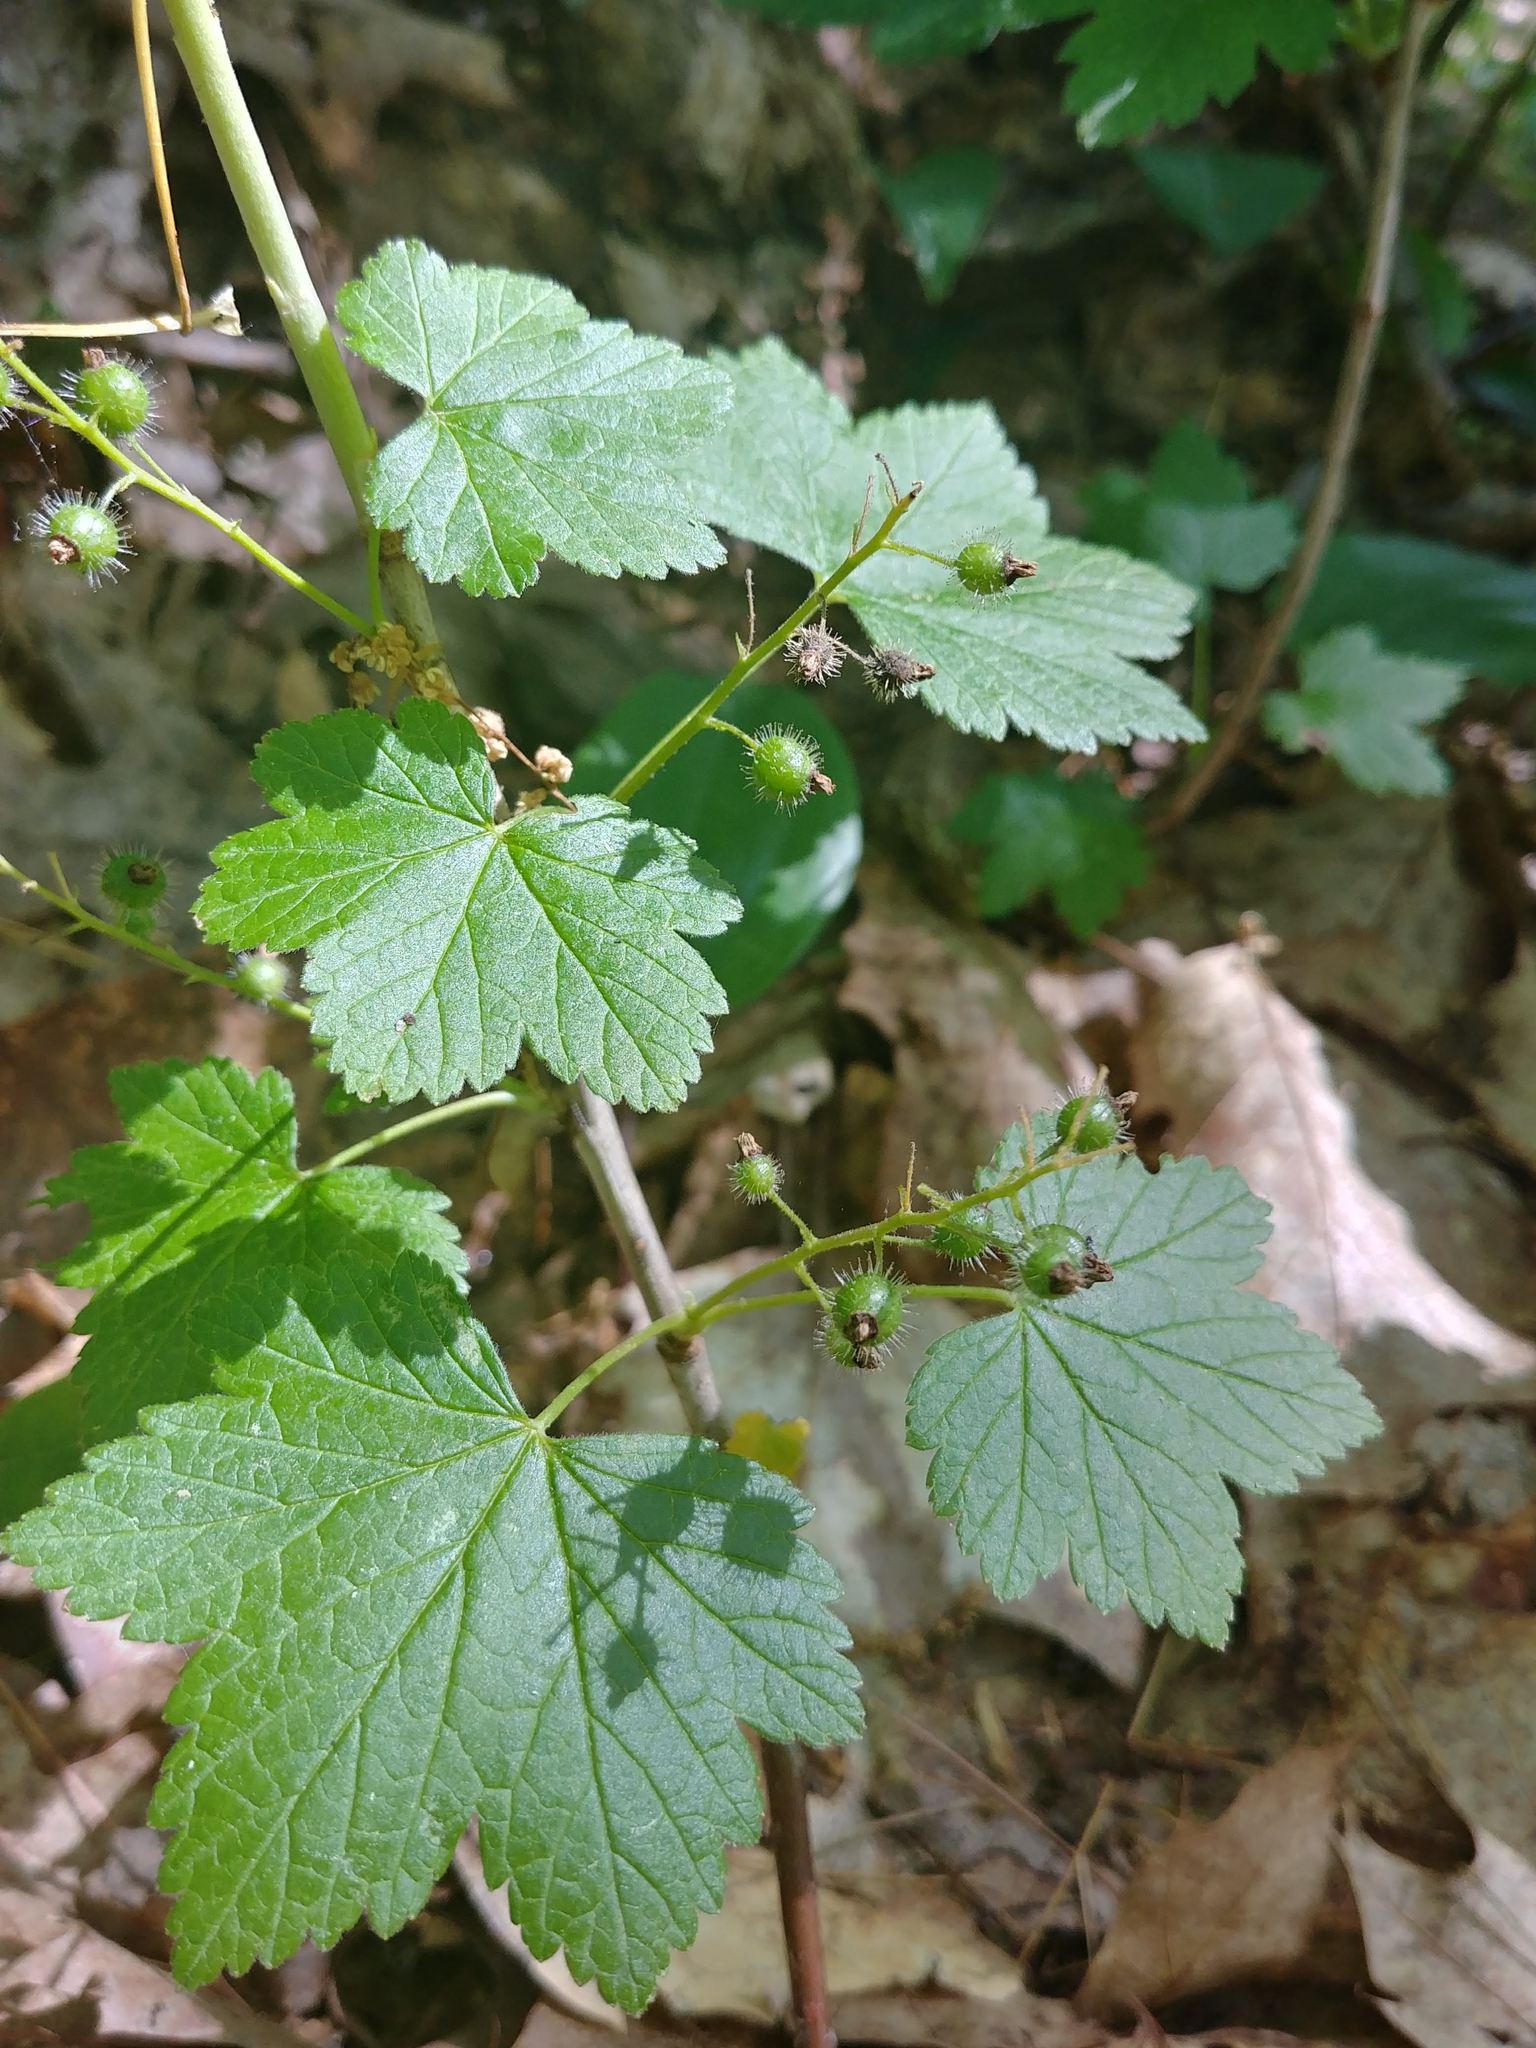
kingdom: Plantae
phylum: Tracheophyta
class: Magnoliopsida
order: Saxifragales
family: Grossulariaceae
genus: Ribes
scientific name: Ribes glandulosum
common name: Skunk currant
